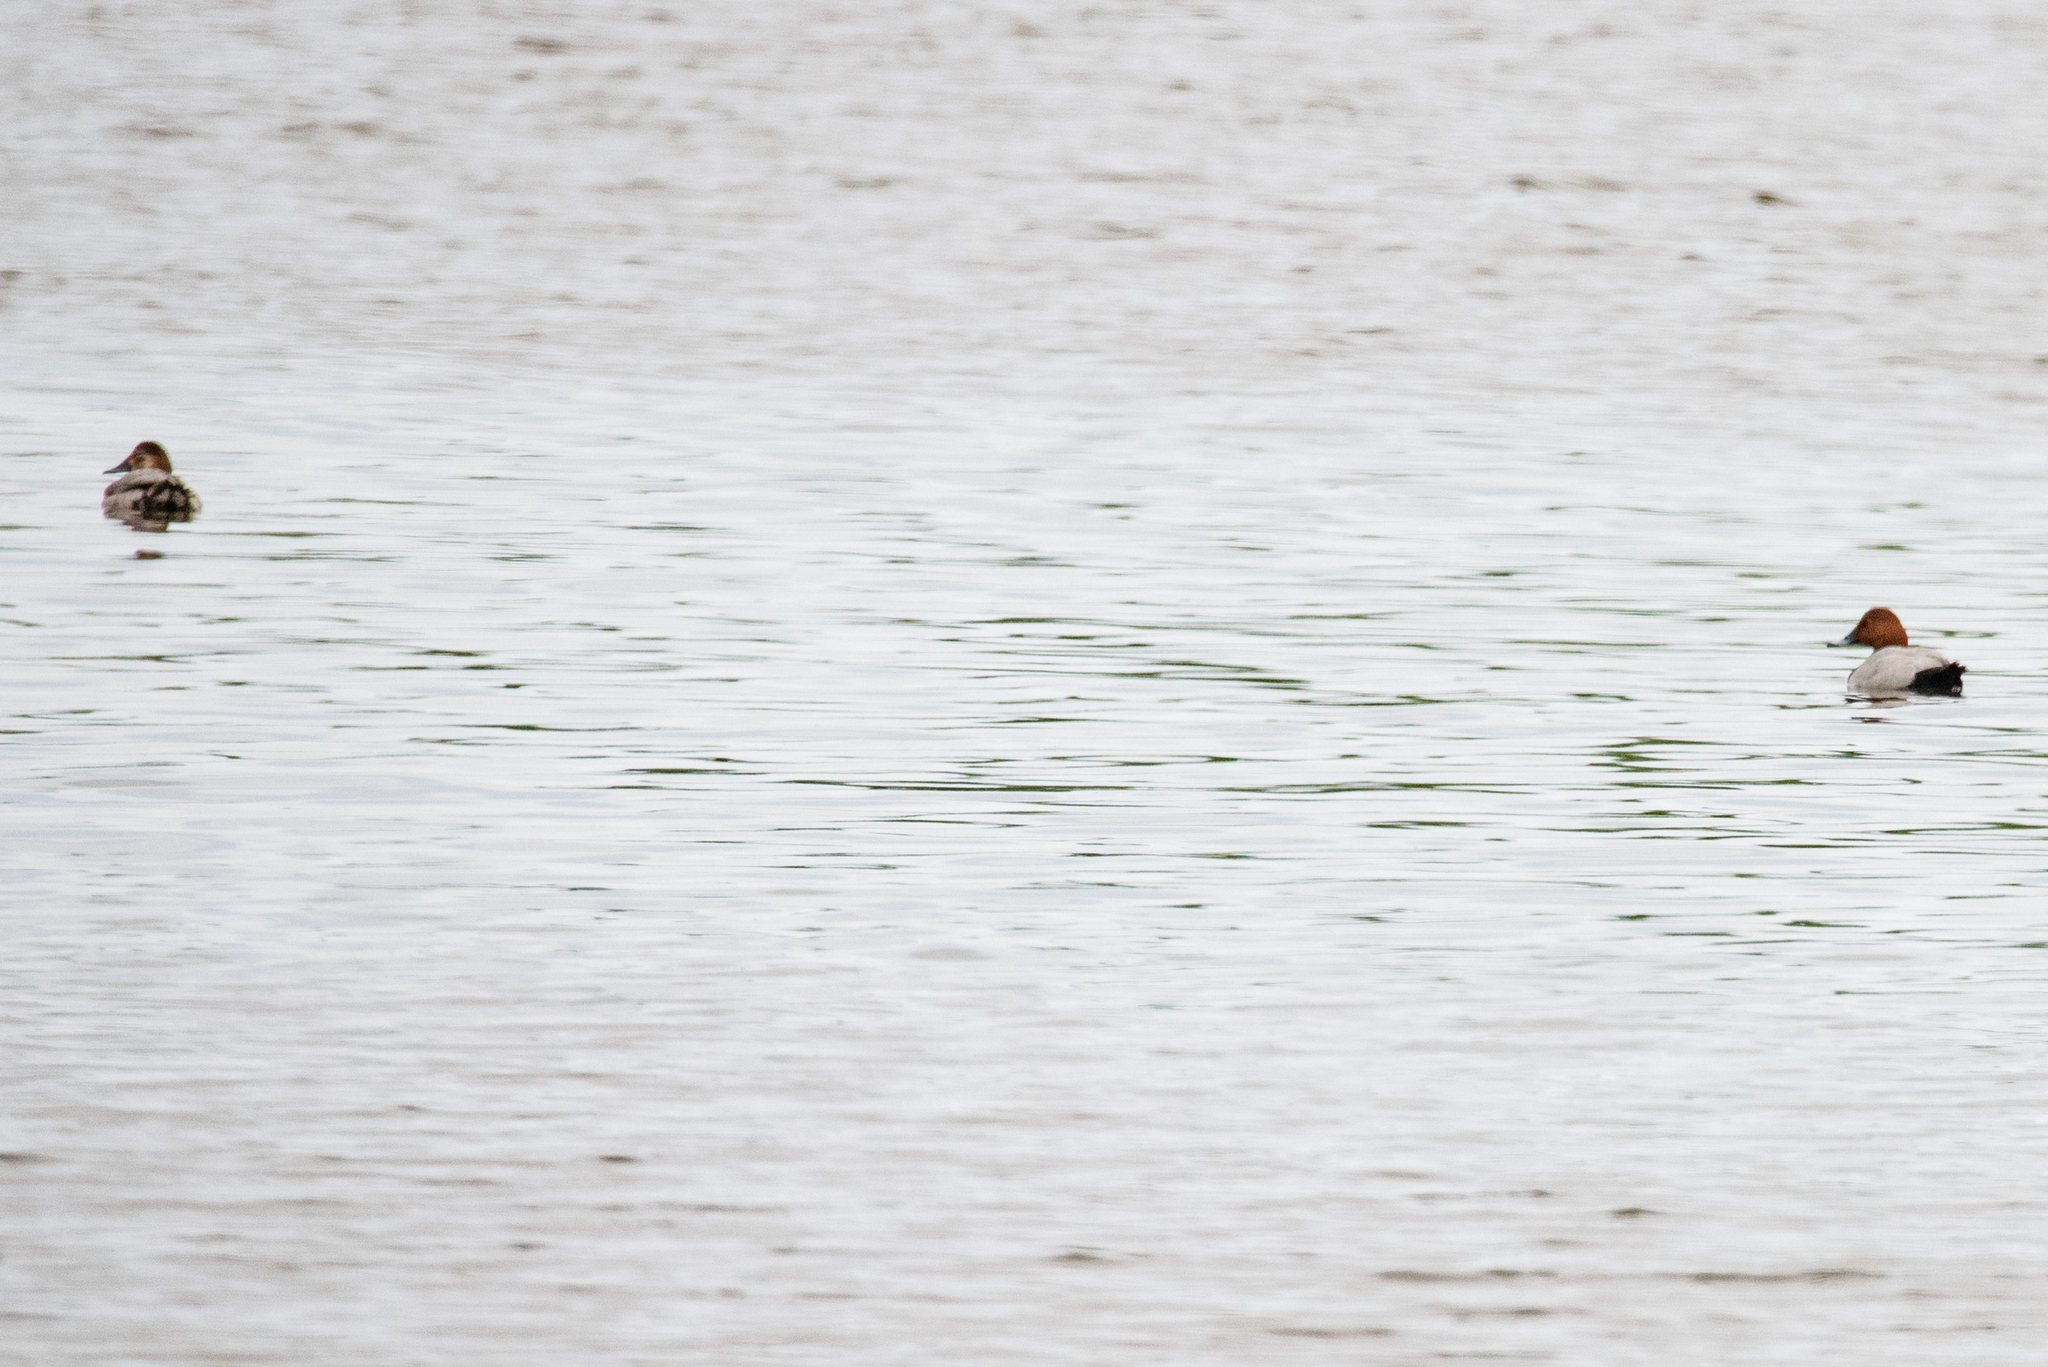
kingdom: Animalia
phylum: Chordata
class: Aves
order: Anseriformes
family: Anatidae
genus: Aythya
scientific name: Aythya ferina
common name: Common pochard
